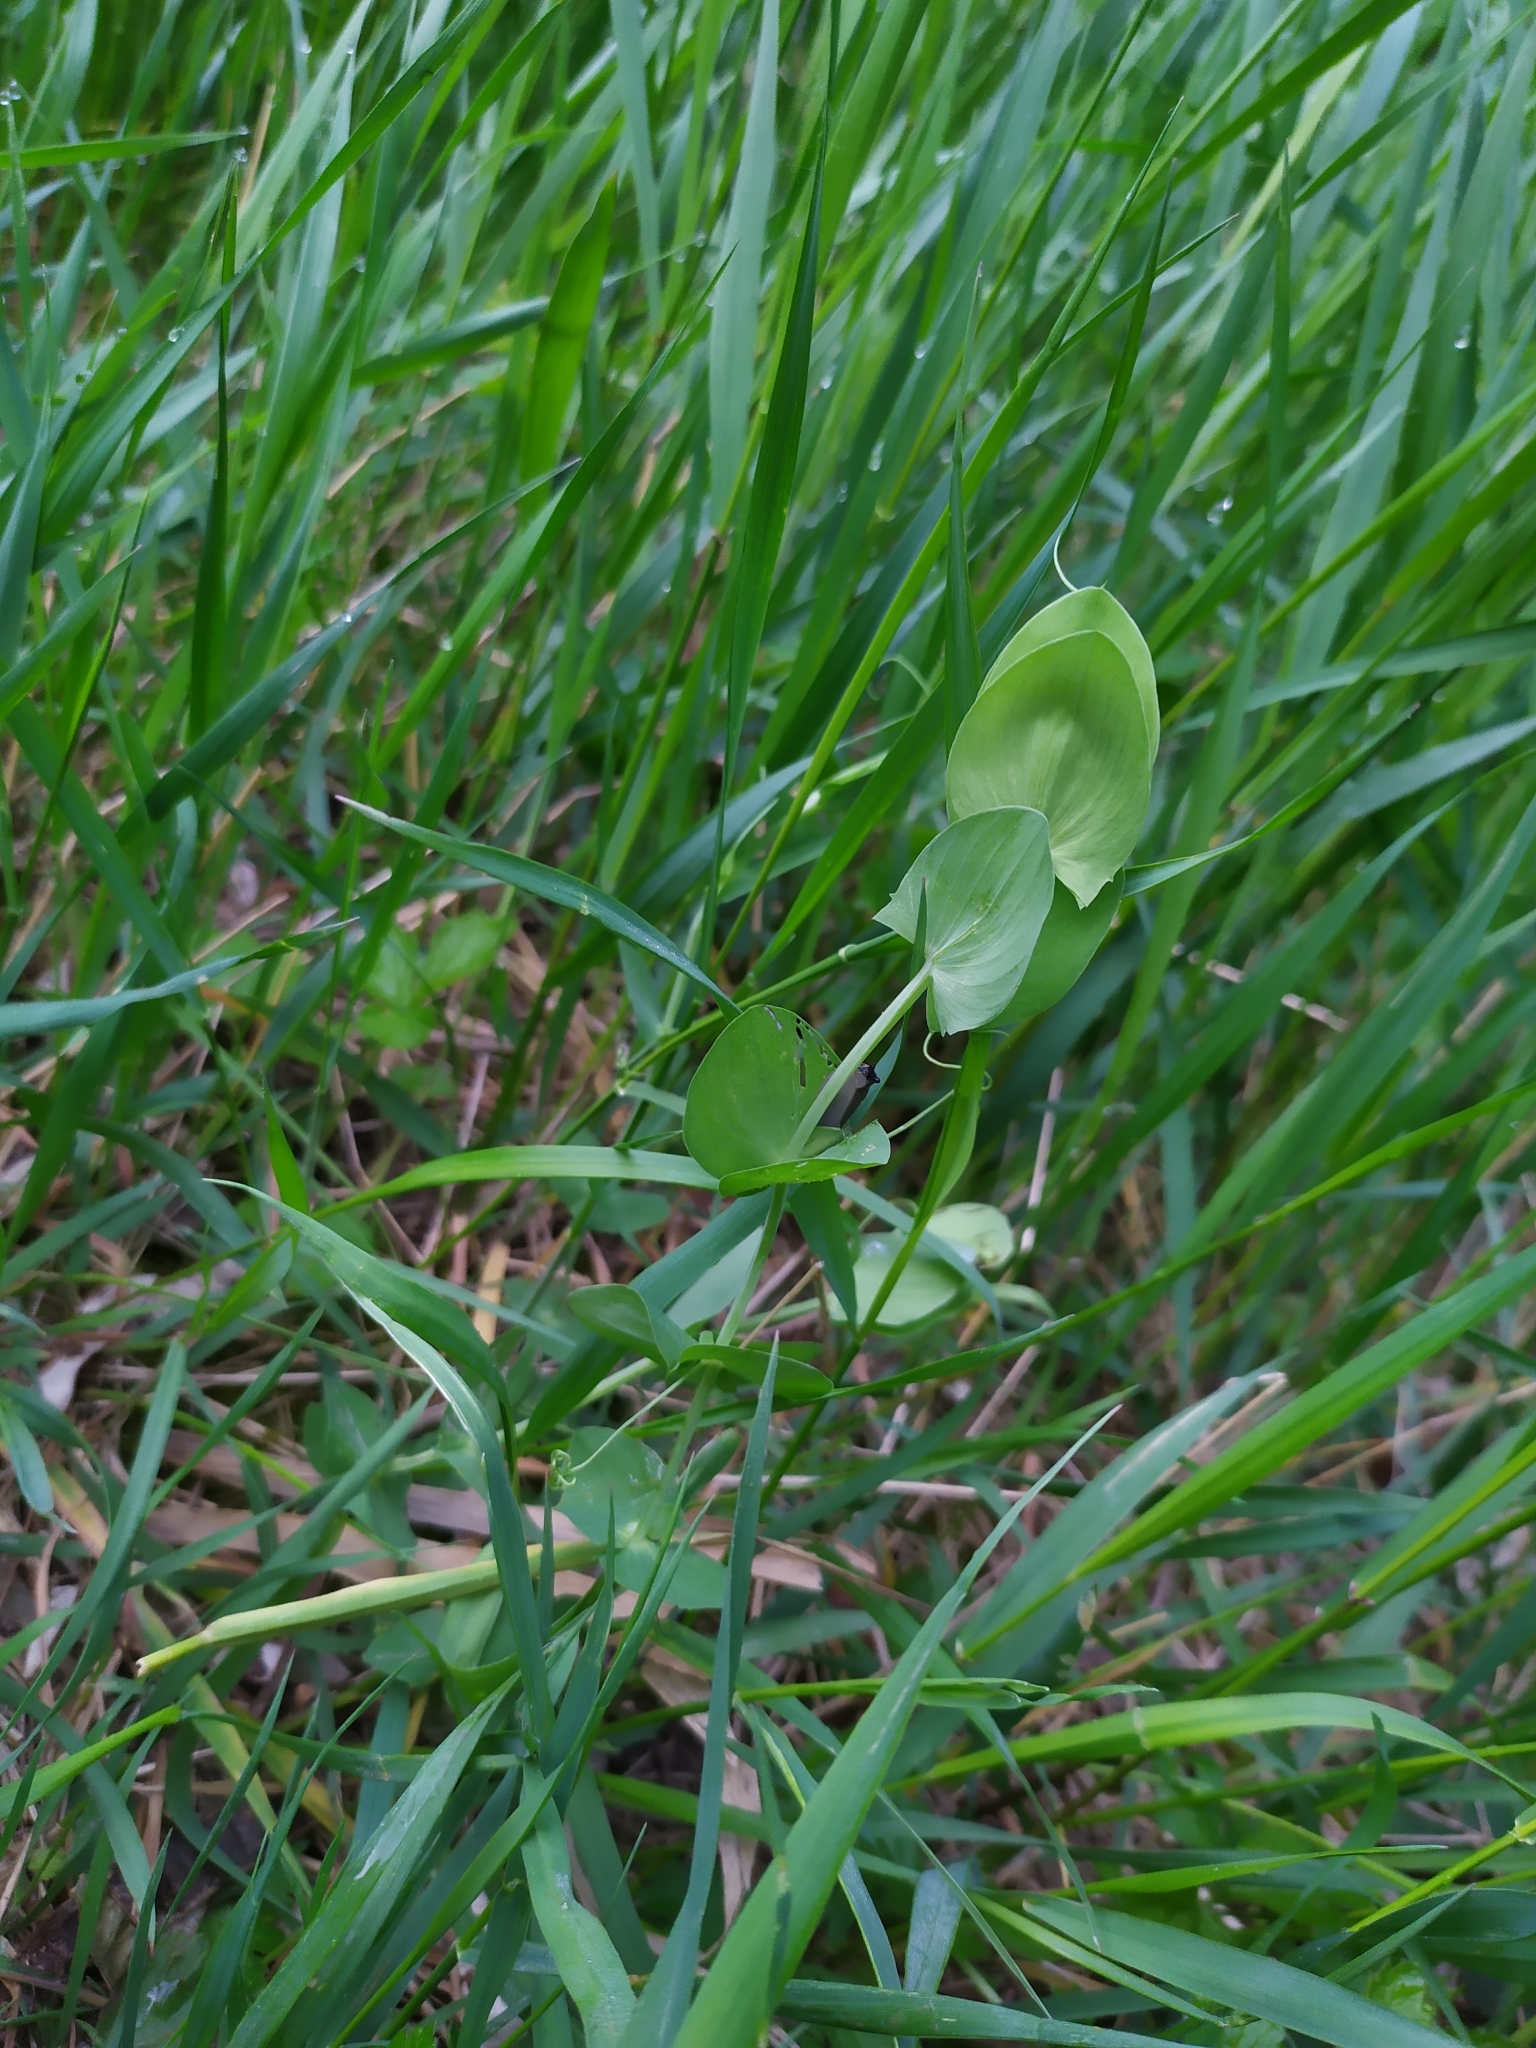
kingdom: Plantae
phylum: Tracheophyta
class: Magnoliopsida
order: Fabales
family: Fabaceae
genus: Lathyrus
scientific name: Lathyrus aphaca
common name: Yellow vetchling
